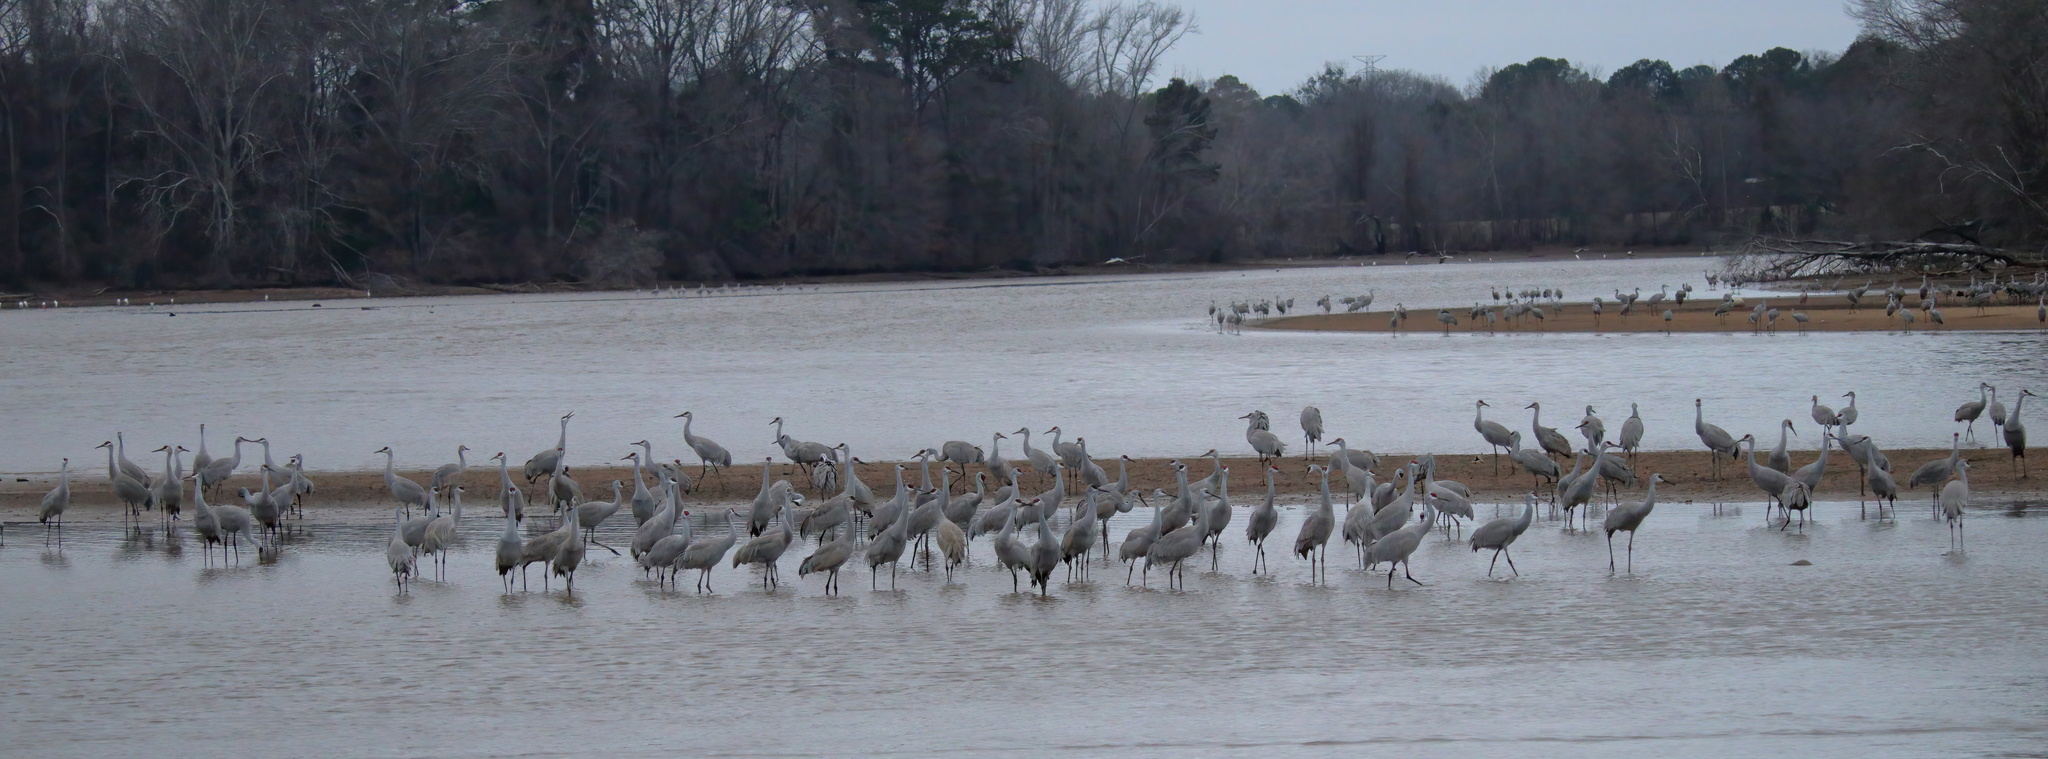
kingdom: Animalia
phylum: Chordata
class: Aves
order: Gruiformes
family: Gruidae
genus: Grus
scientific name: Grus canadensis
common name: Sandhill crane
